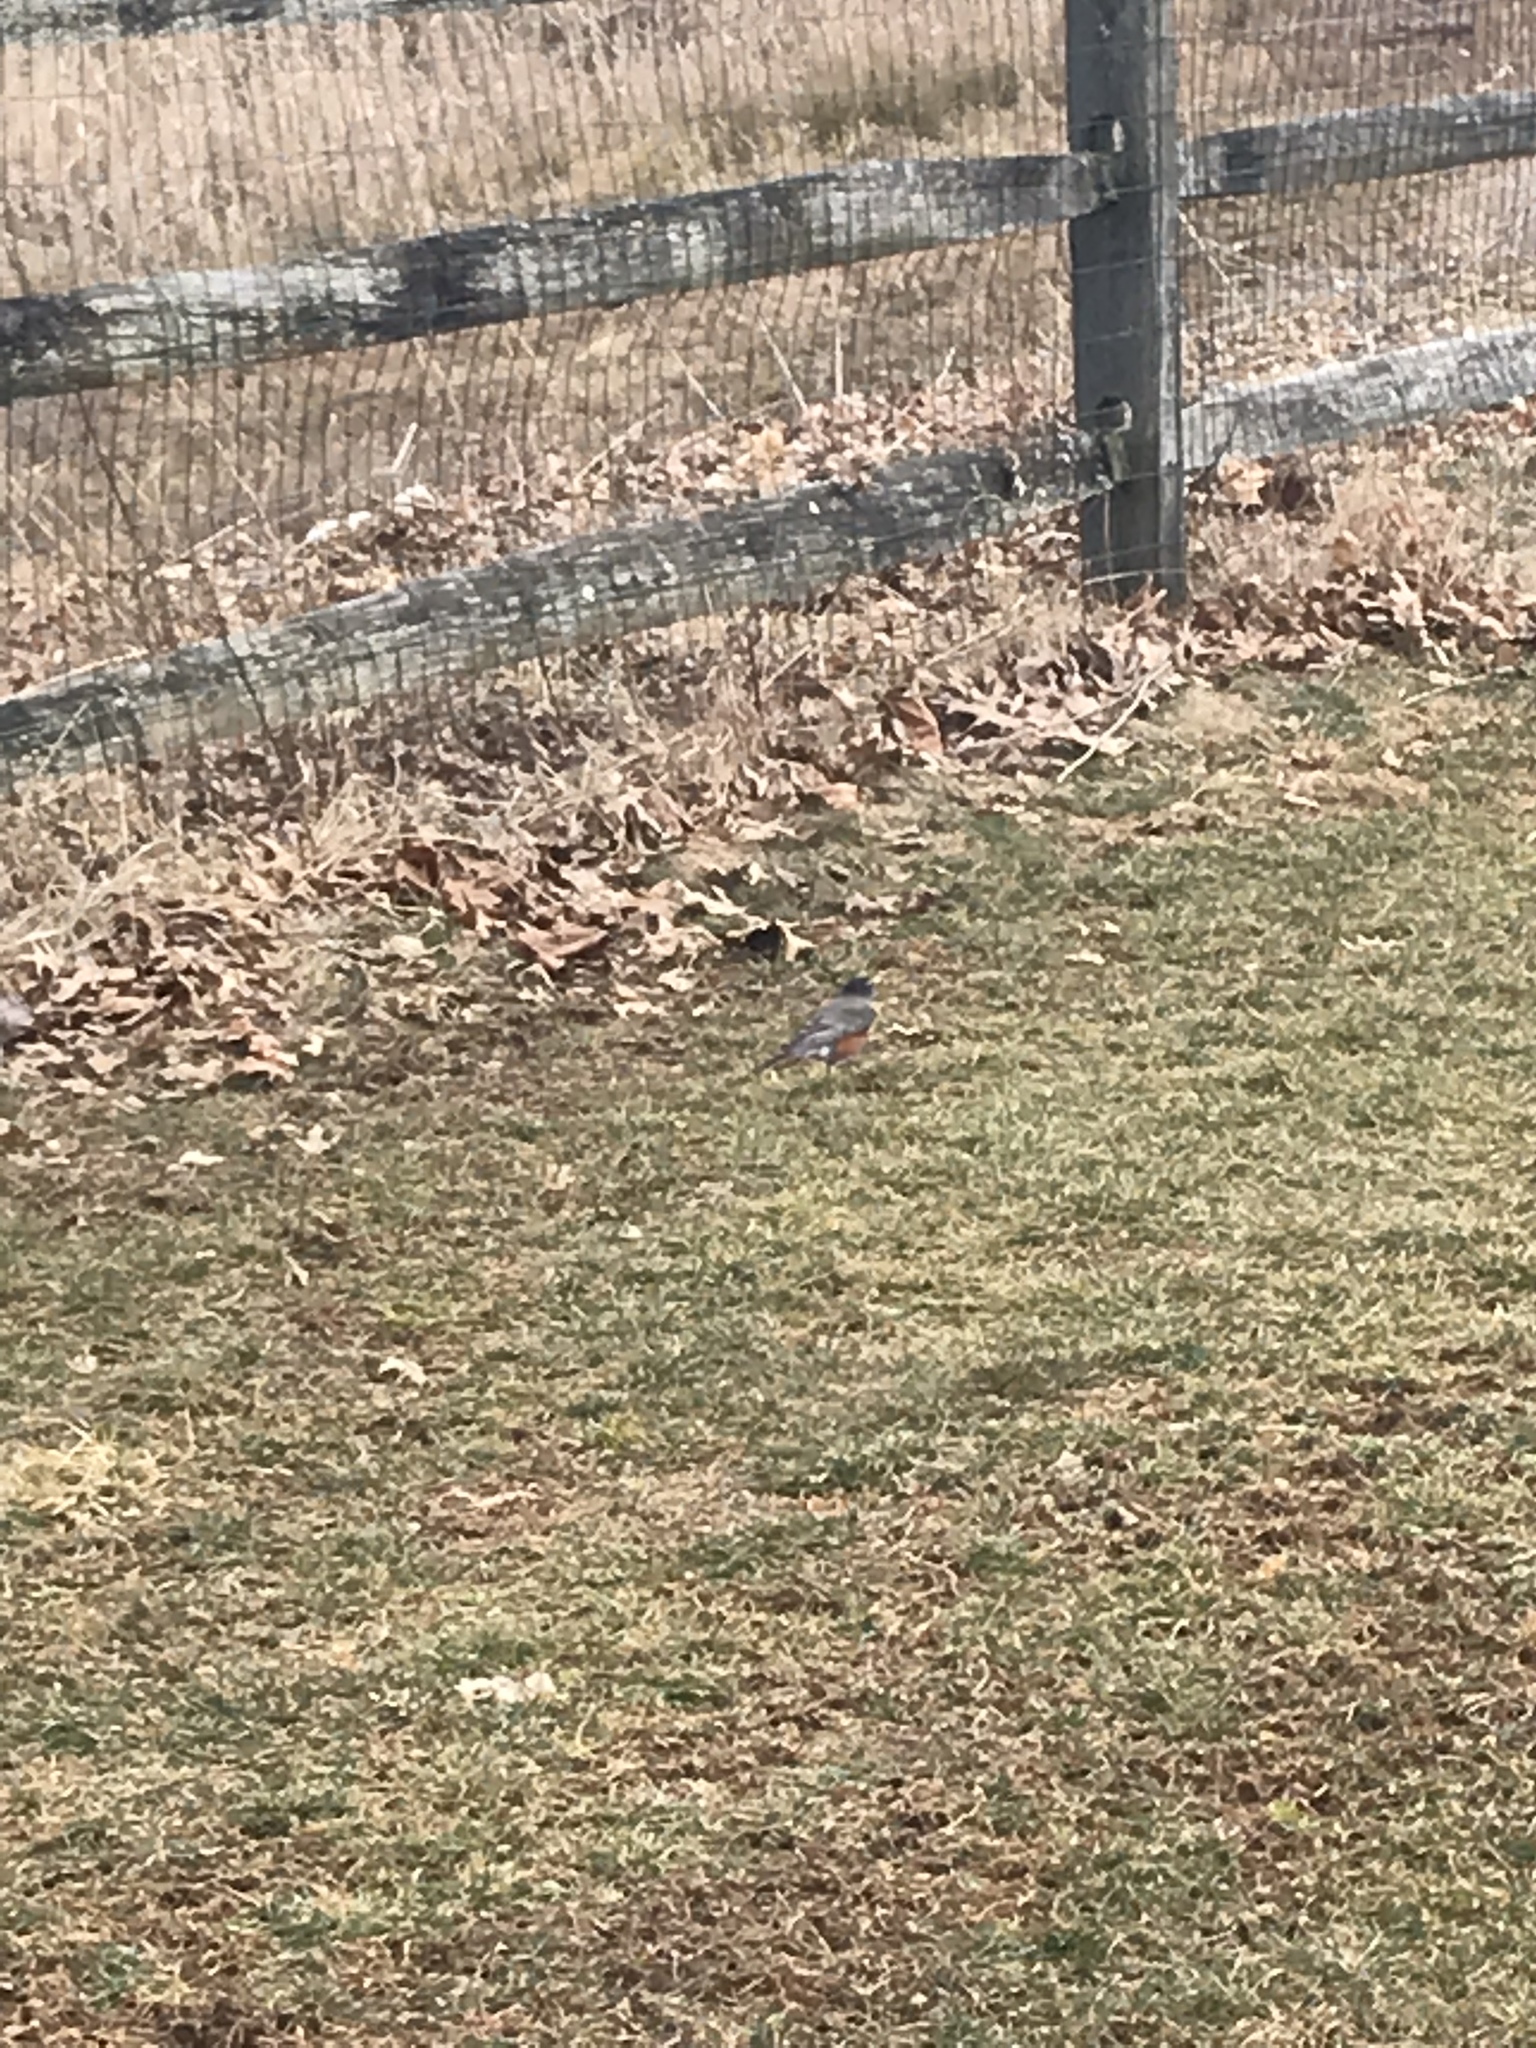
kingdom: Animalia
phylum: Chordata
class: Aves
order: Passeriformes
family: Turdidae
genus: Turdus
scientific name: Turdus migratorius
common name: American robin
